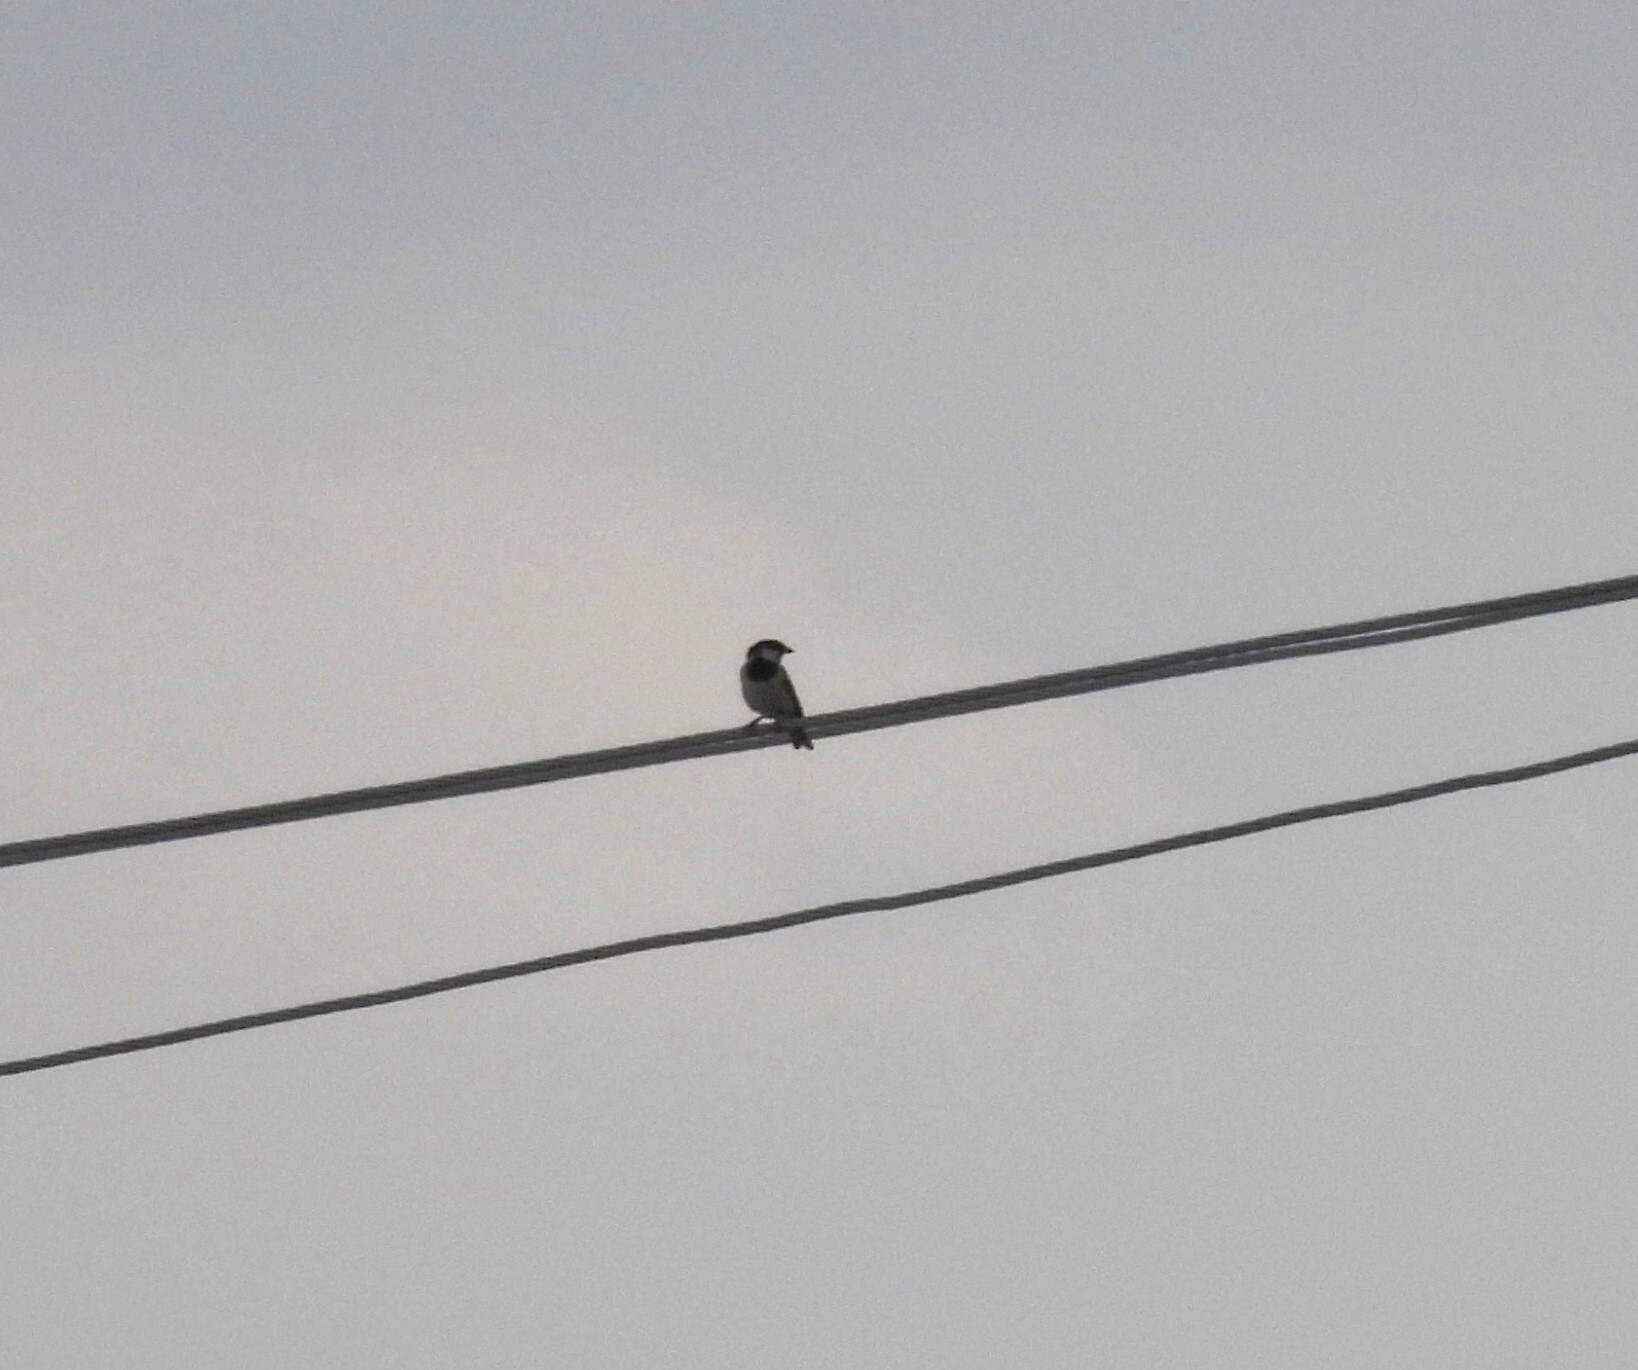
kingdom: Animalia
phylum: Chordata
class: Aves
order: Passeriformes
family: Passeridae
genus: Passer
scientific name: Passer domesticus
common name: House sparrow
